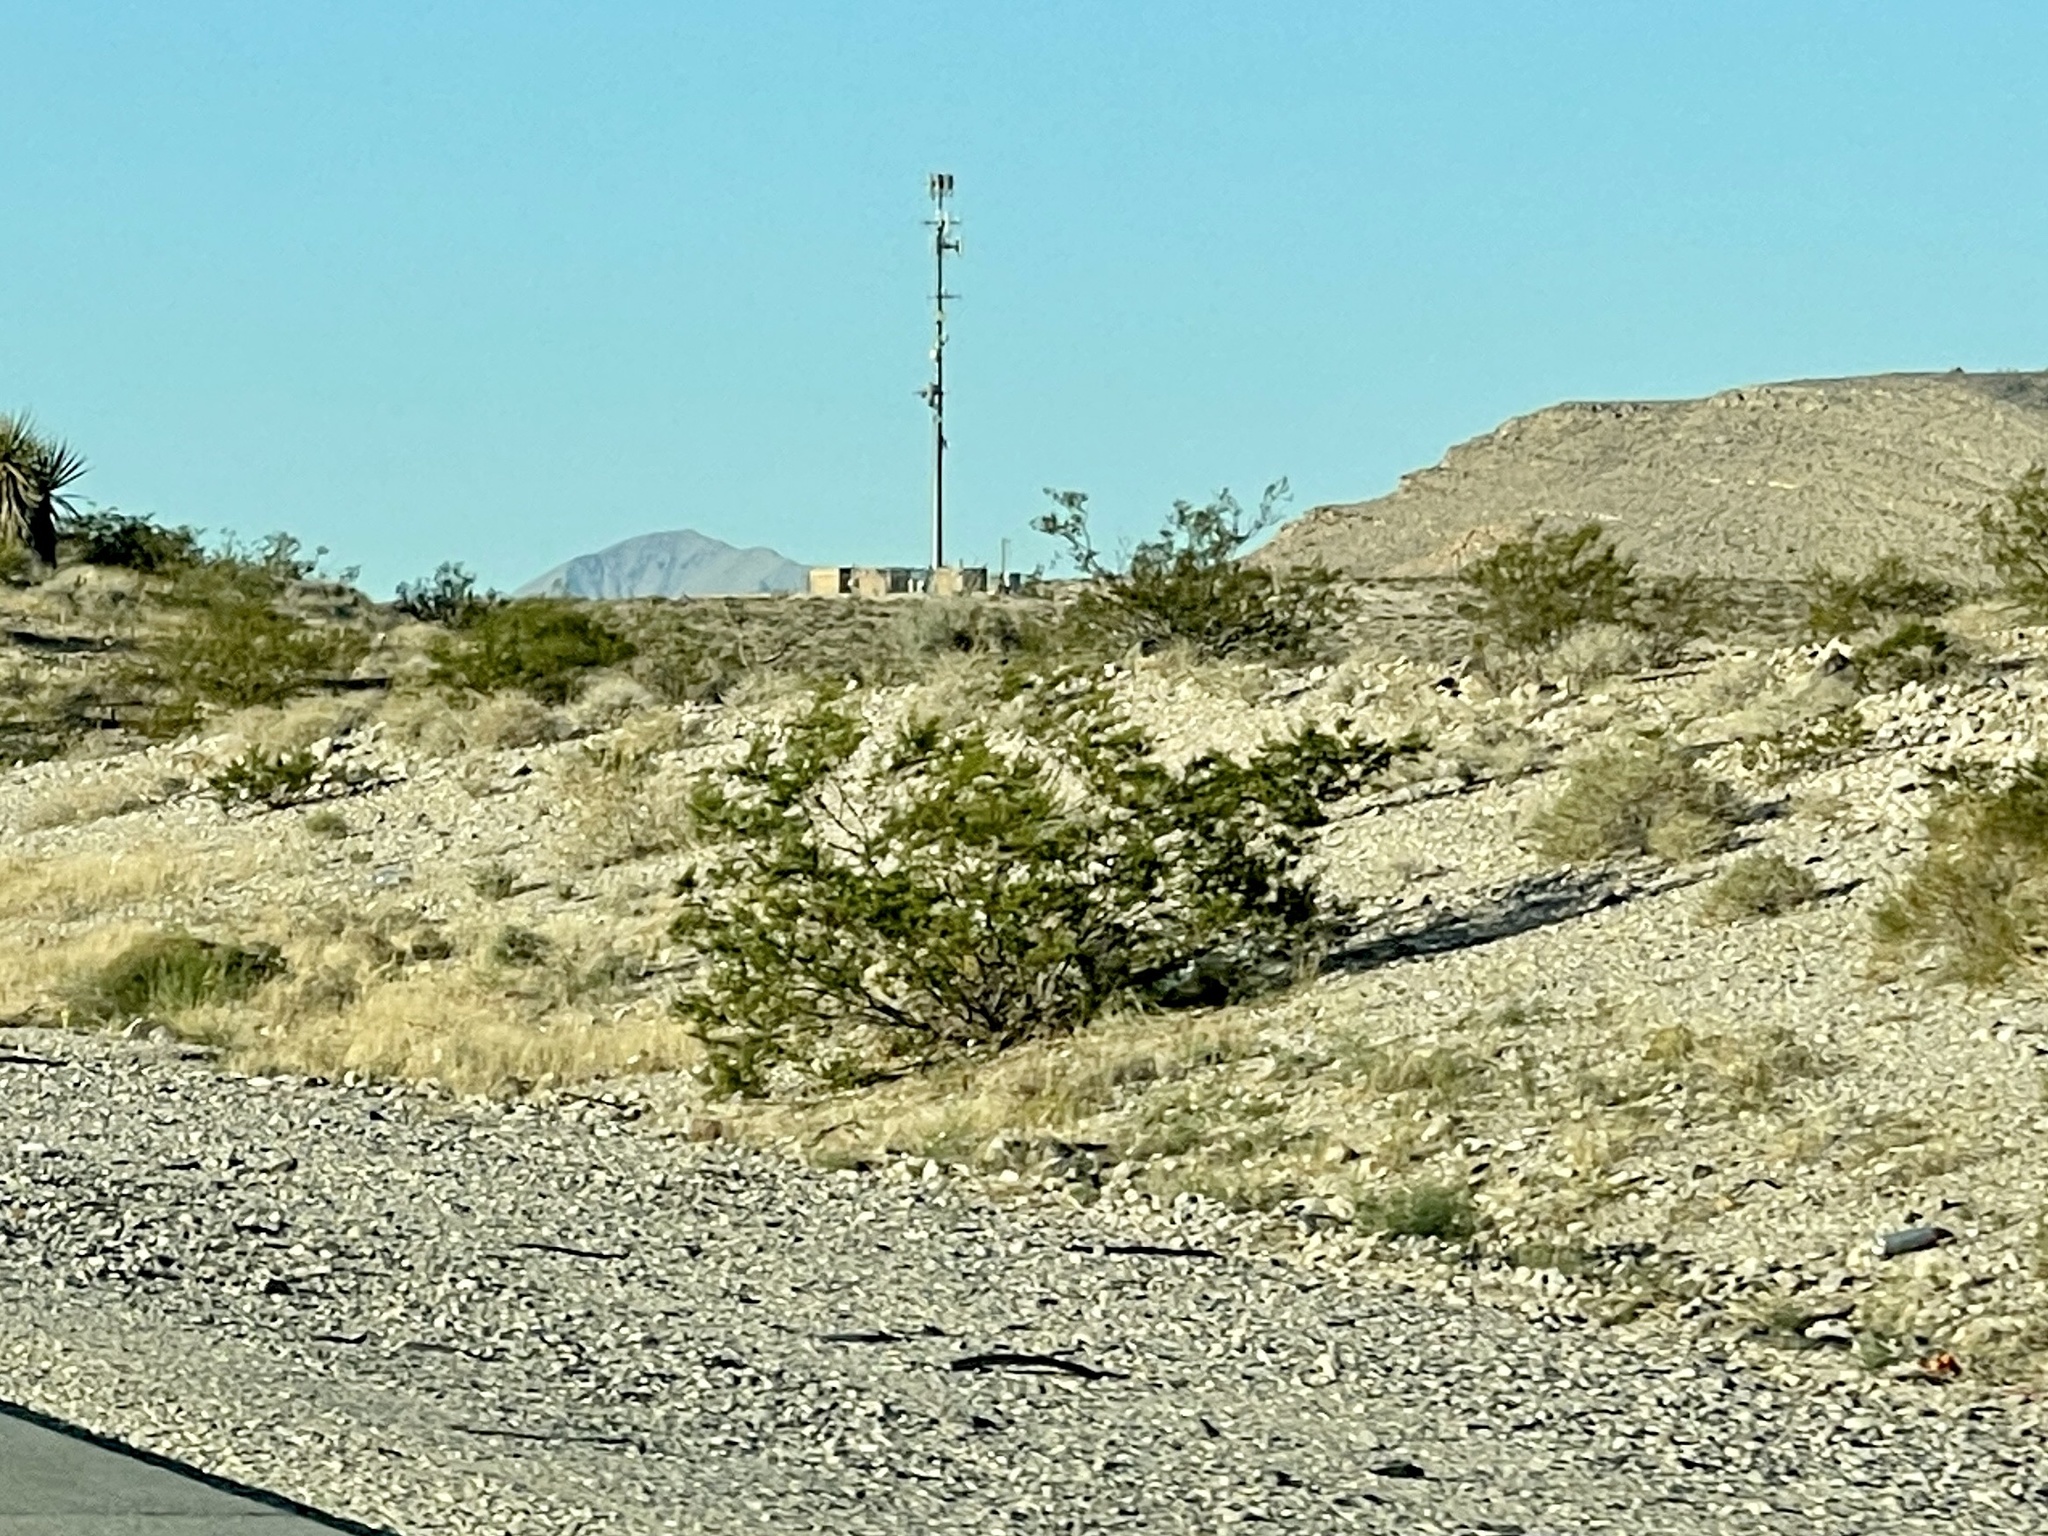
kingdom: Plantae
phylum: Tracheophyta
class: Magnoliopsida
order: Zygophyllales
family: Zygophyllaceae
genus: Larrea
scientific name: Larrea tridentata
